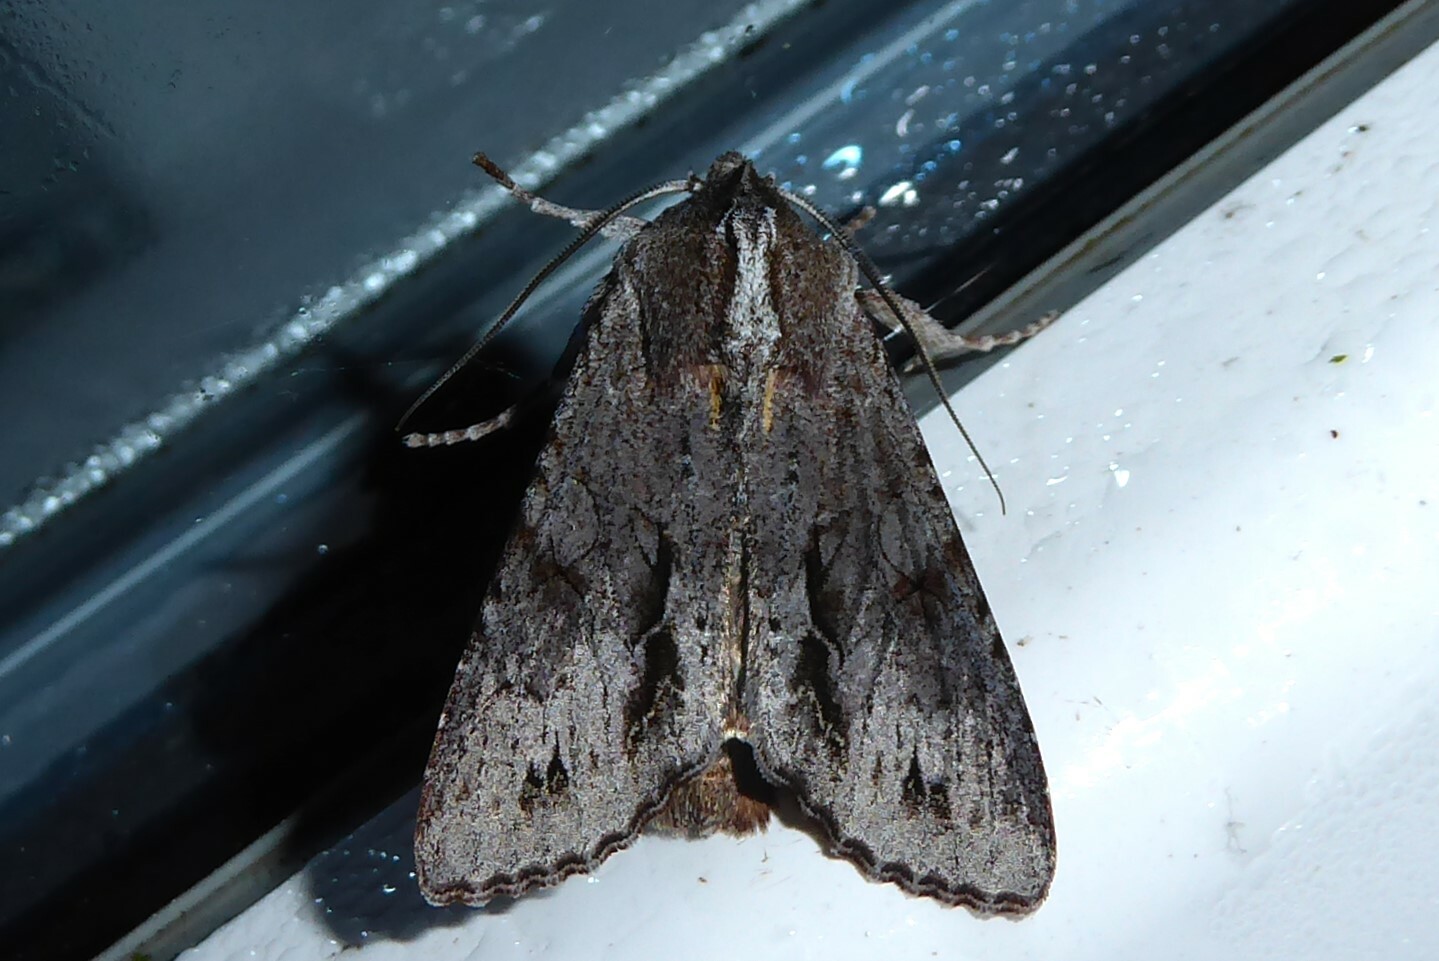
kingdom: Animalia
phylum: Arthropoda
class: Insecta
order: Lepidoptera
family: Noctuidae
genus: Ichneutica
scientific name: Ichneutica
